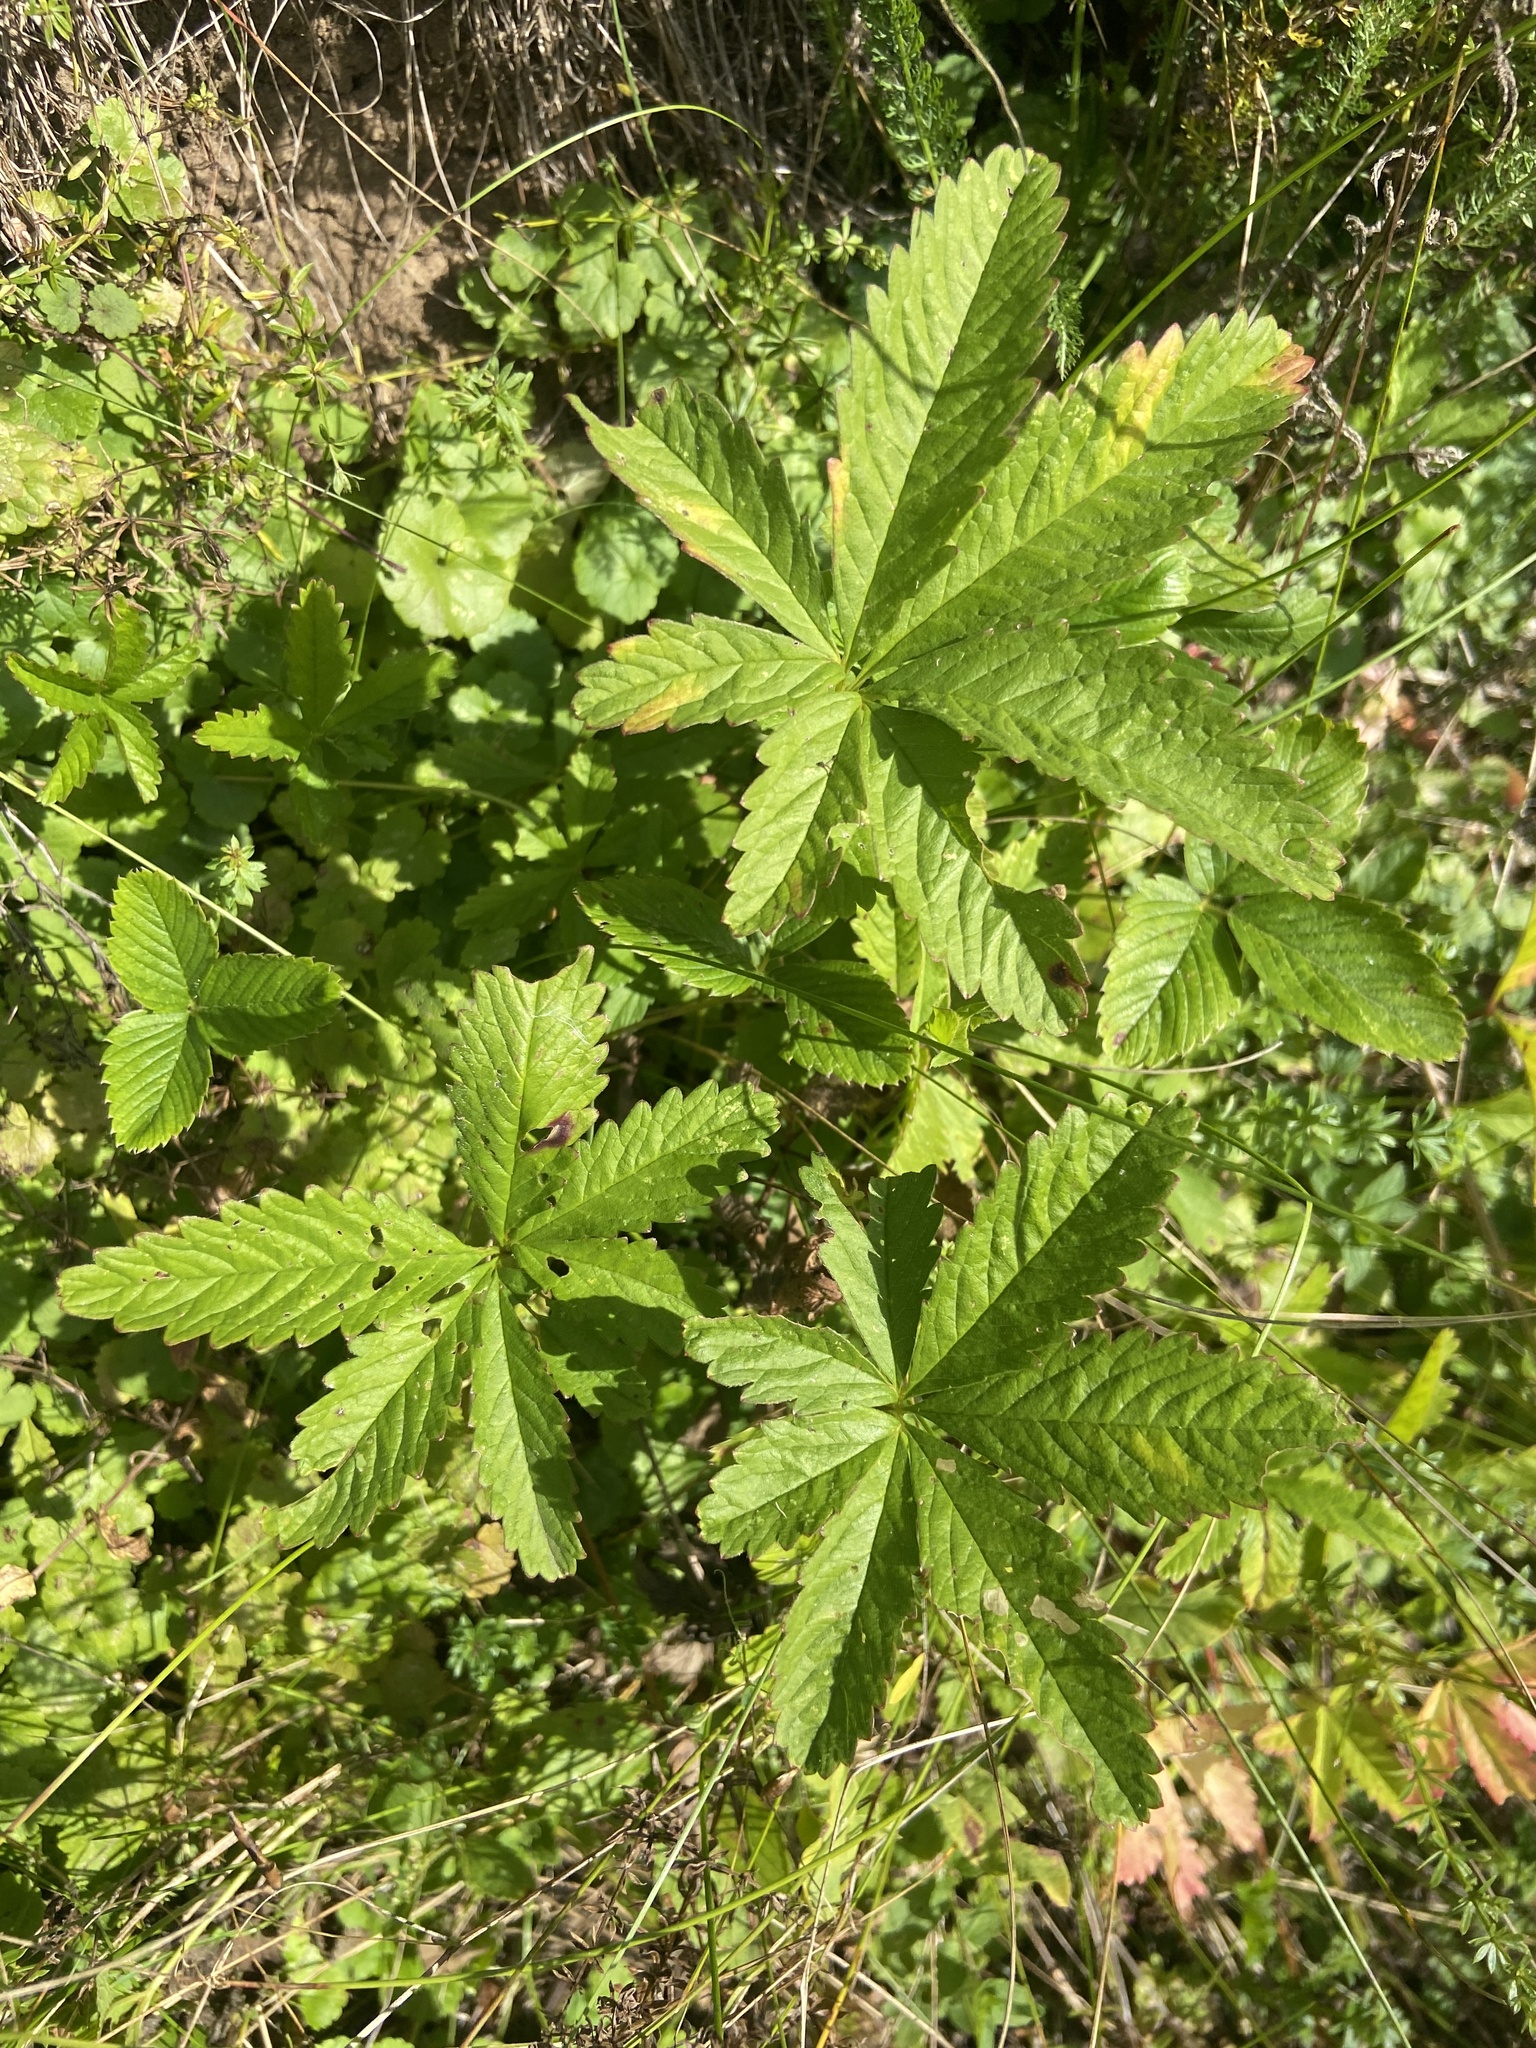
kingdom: Plantae
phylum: Tracheophyta
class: Magnoliopsida
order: Rosales
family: Rosaceae
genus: Potentilla
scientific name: Potentilla thuringiaca
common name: European cinquefoil
